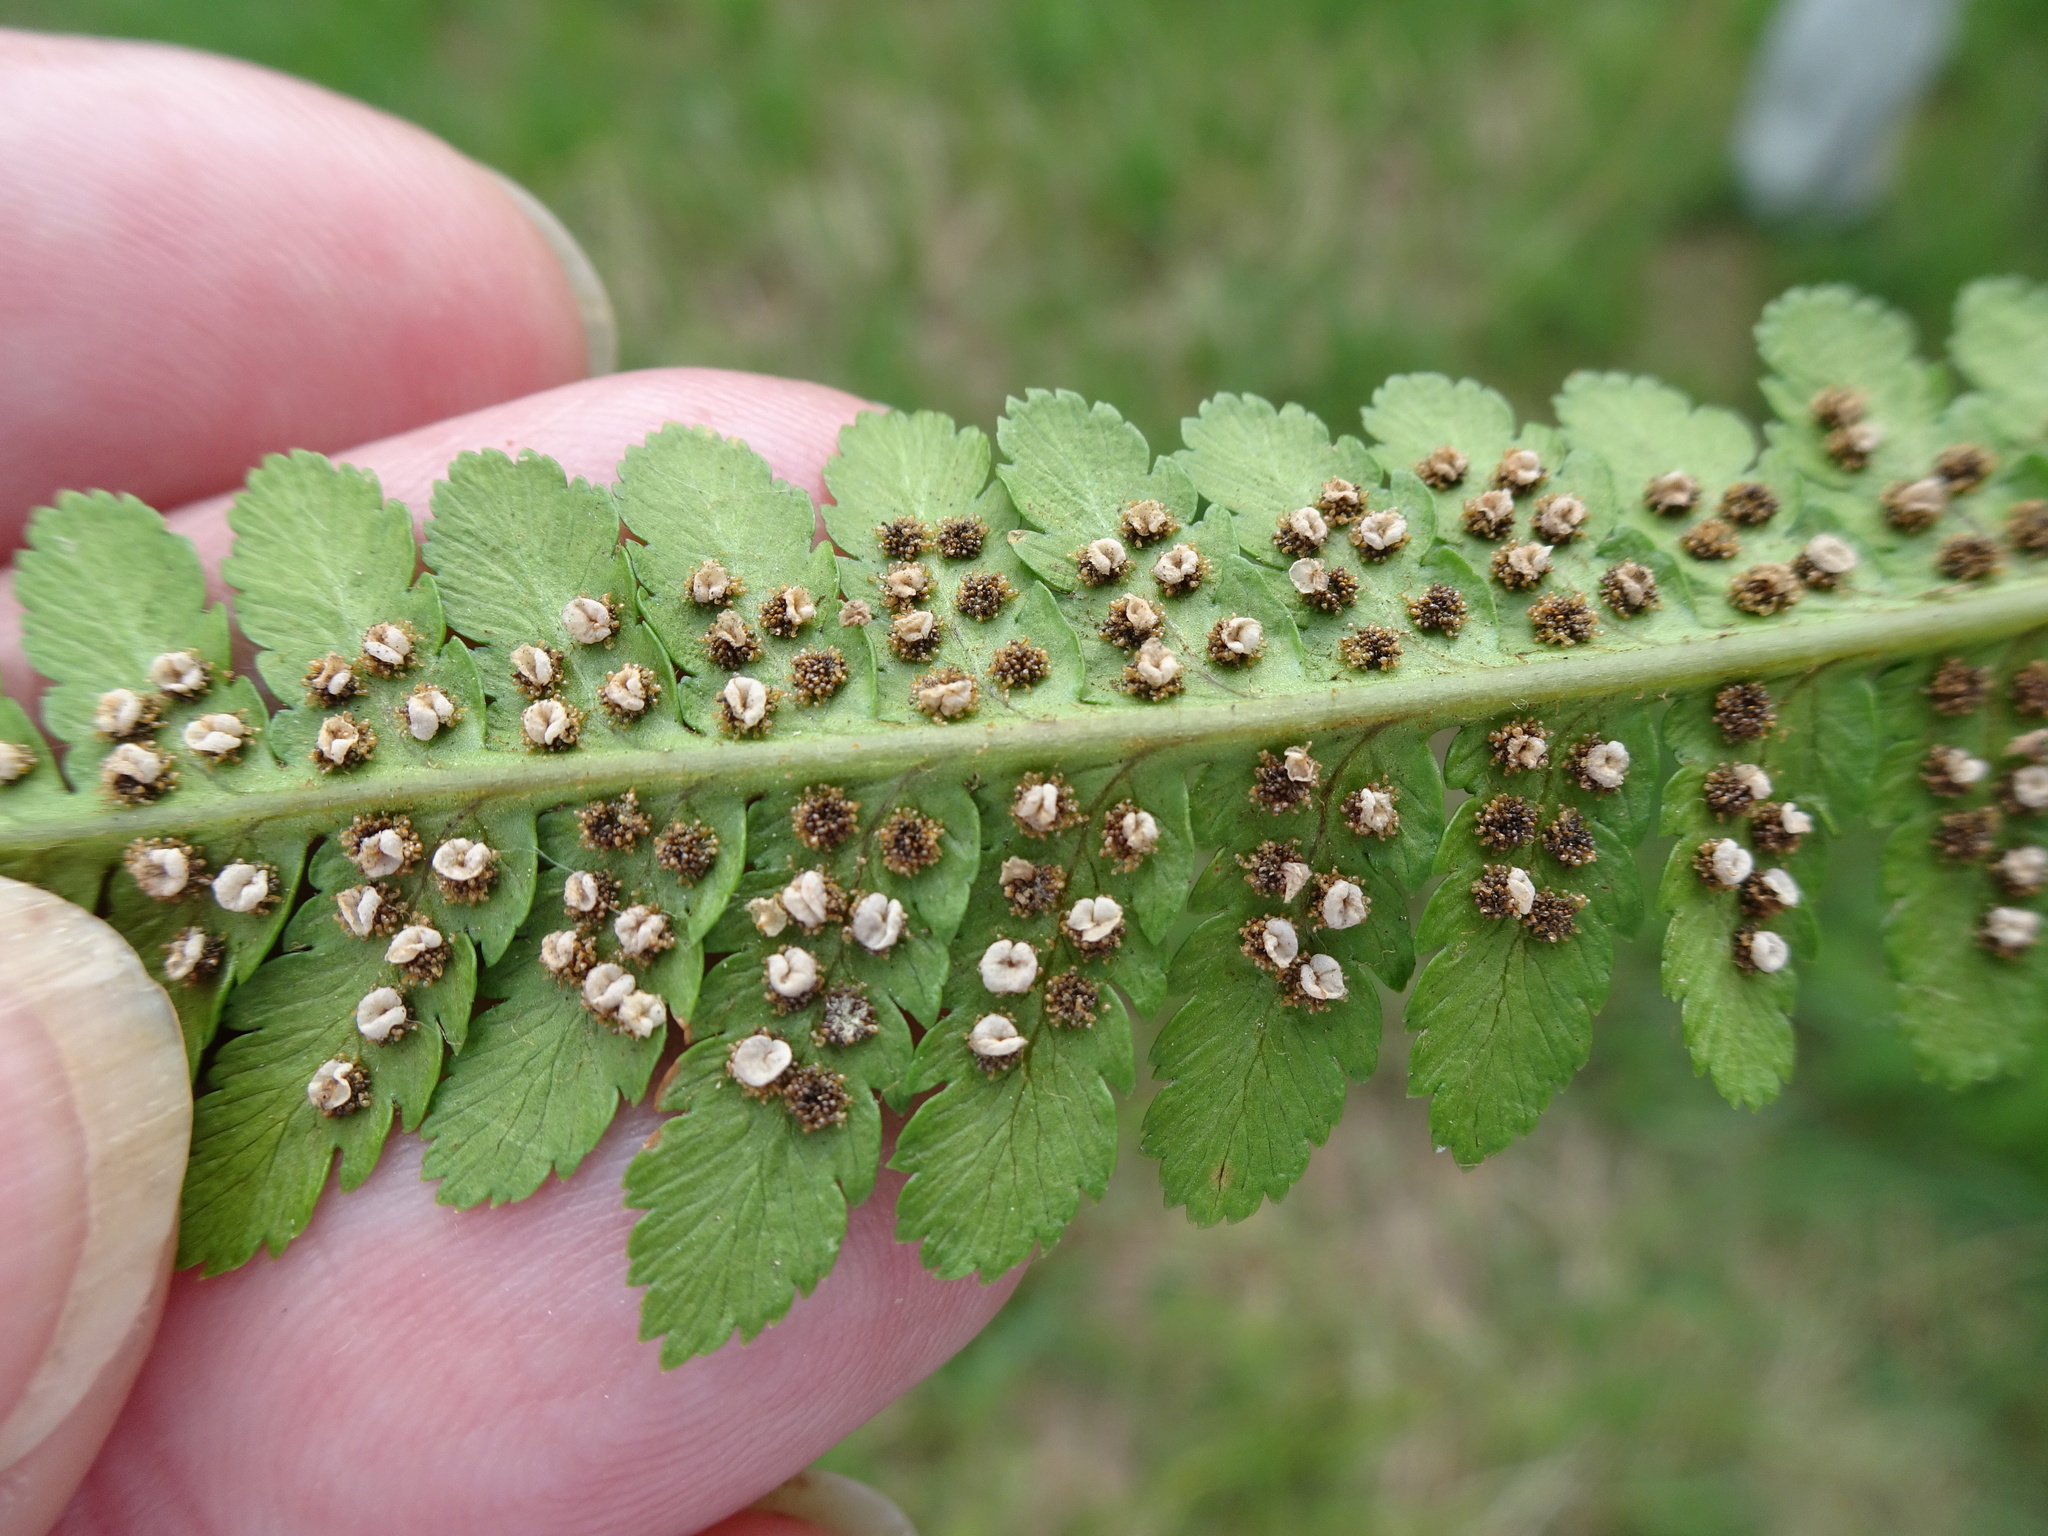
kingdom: Plantae
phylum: Tracheophyta
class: Polypodiopsida
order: Polypodiales
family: Dryopteridaceae
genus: Dryopteris
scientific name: Dryopteris filix-mas
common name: Male fern
